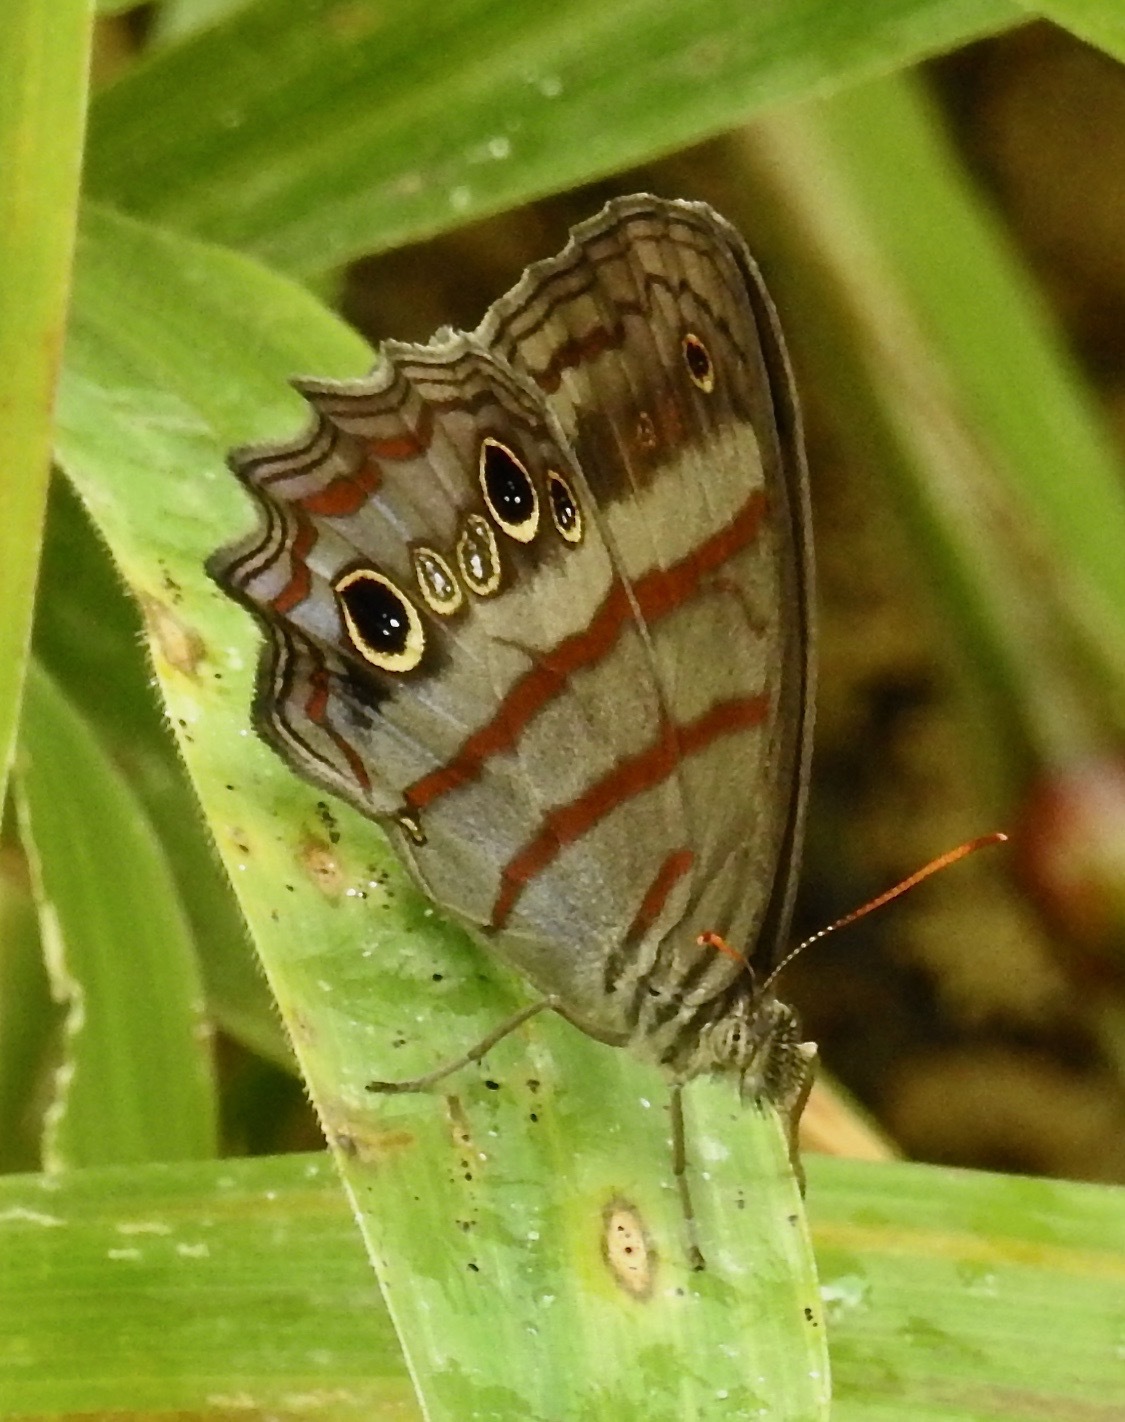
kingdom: Animalia
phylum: Arthropoda
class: Insecta
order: Lepidoptera
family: Nymphalidae
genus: Magneuptychia
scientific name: Magneuptychia libye
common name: Blue-gray satyr
